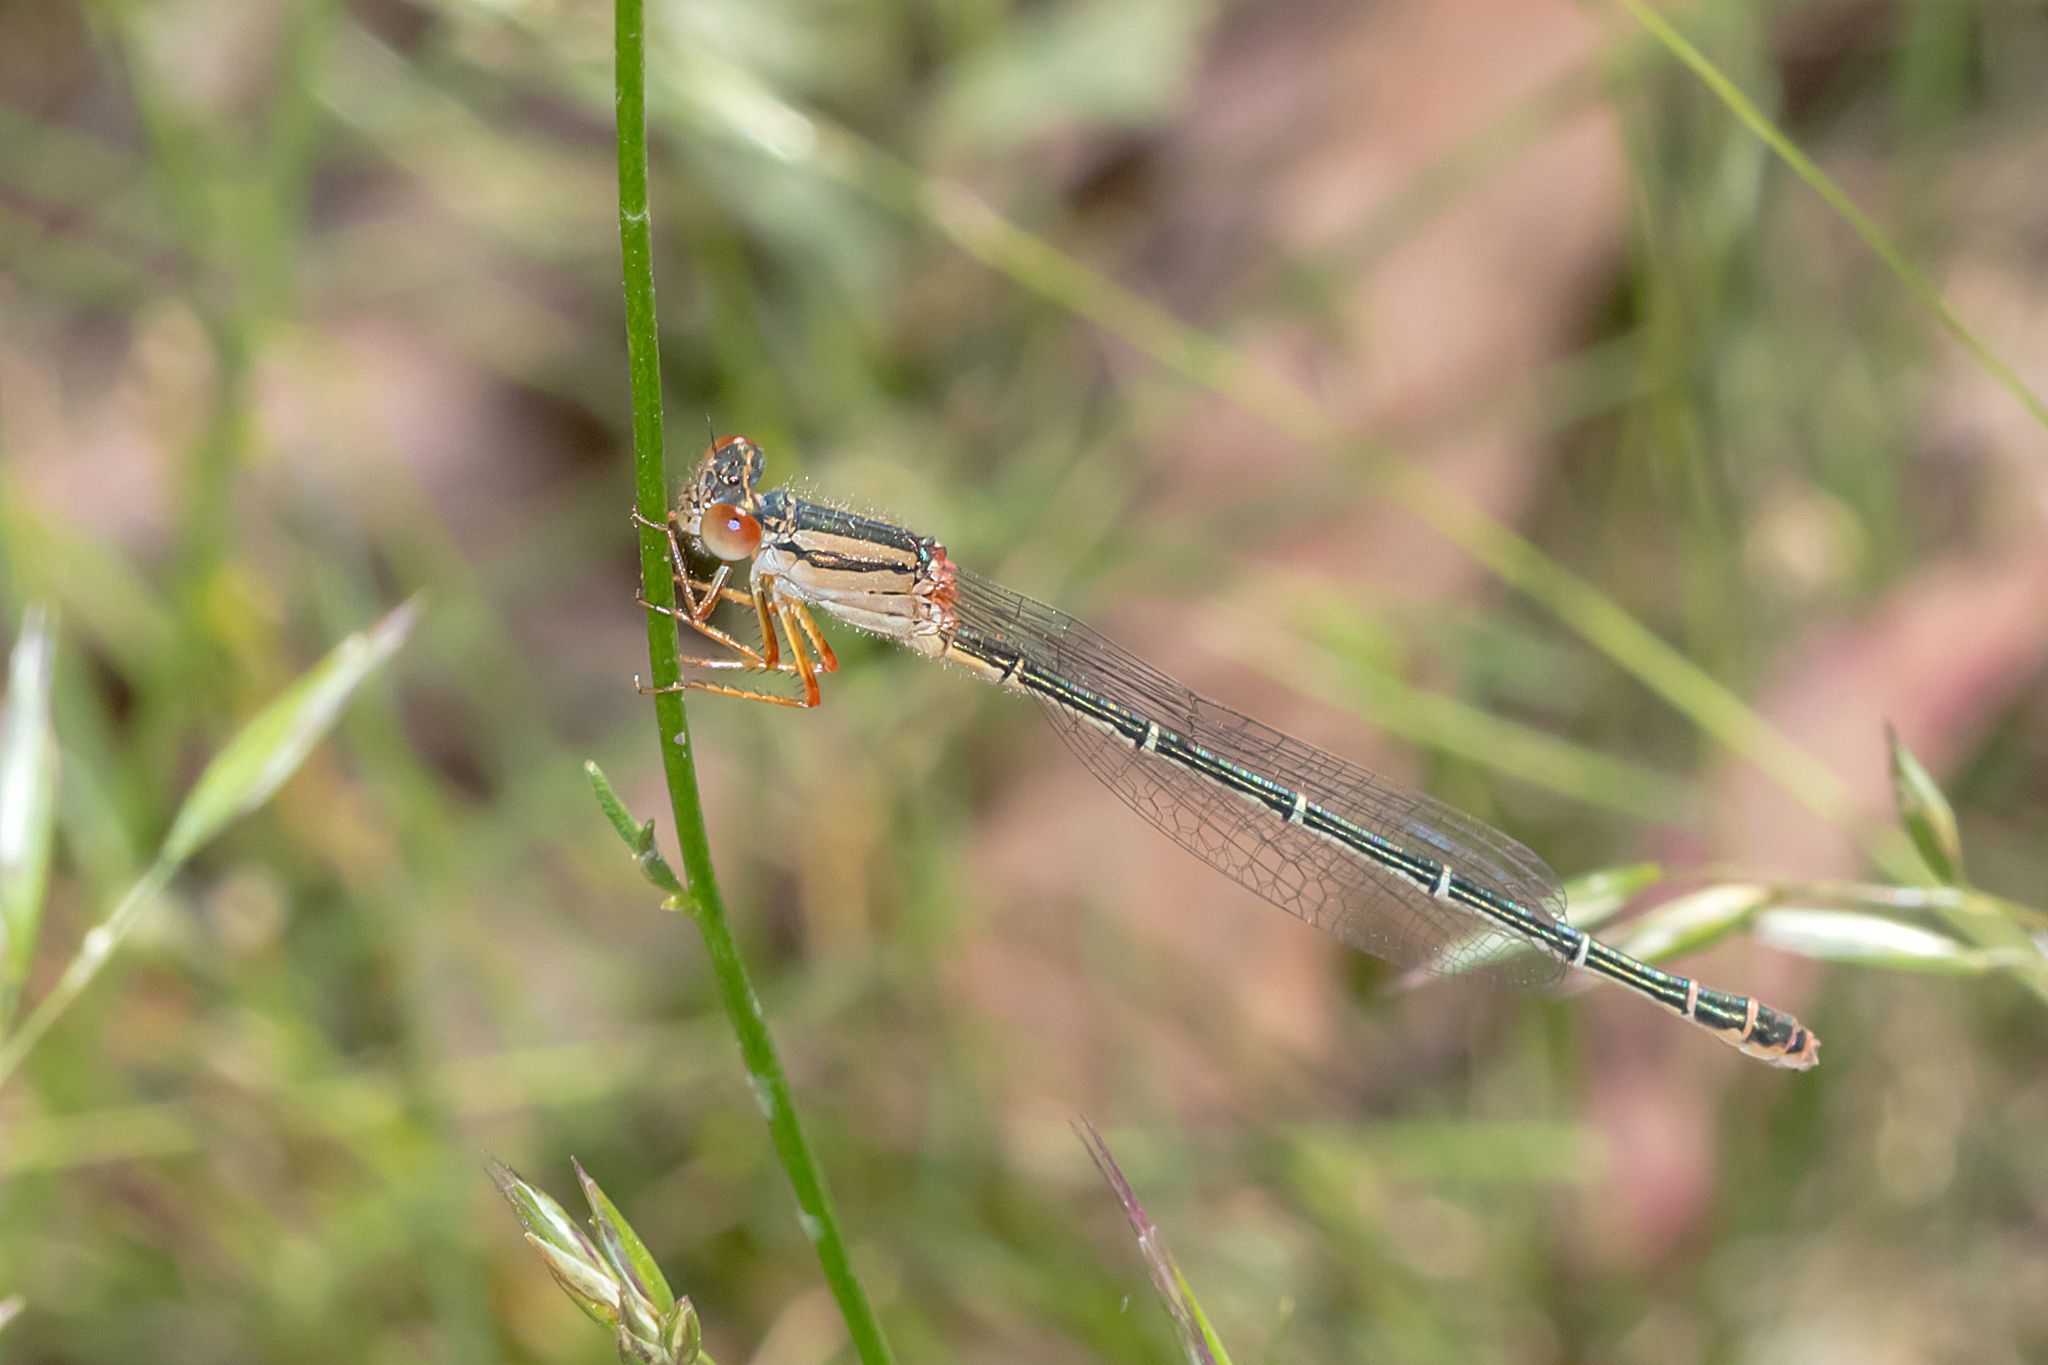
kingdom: Animalia
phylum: Arthropoda
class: Insecta
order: Odonata
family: Coenagrionidae
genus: Xanthagrion
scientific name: Xanthagrion erythroneurum
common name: Red and blue damsel
